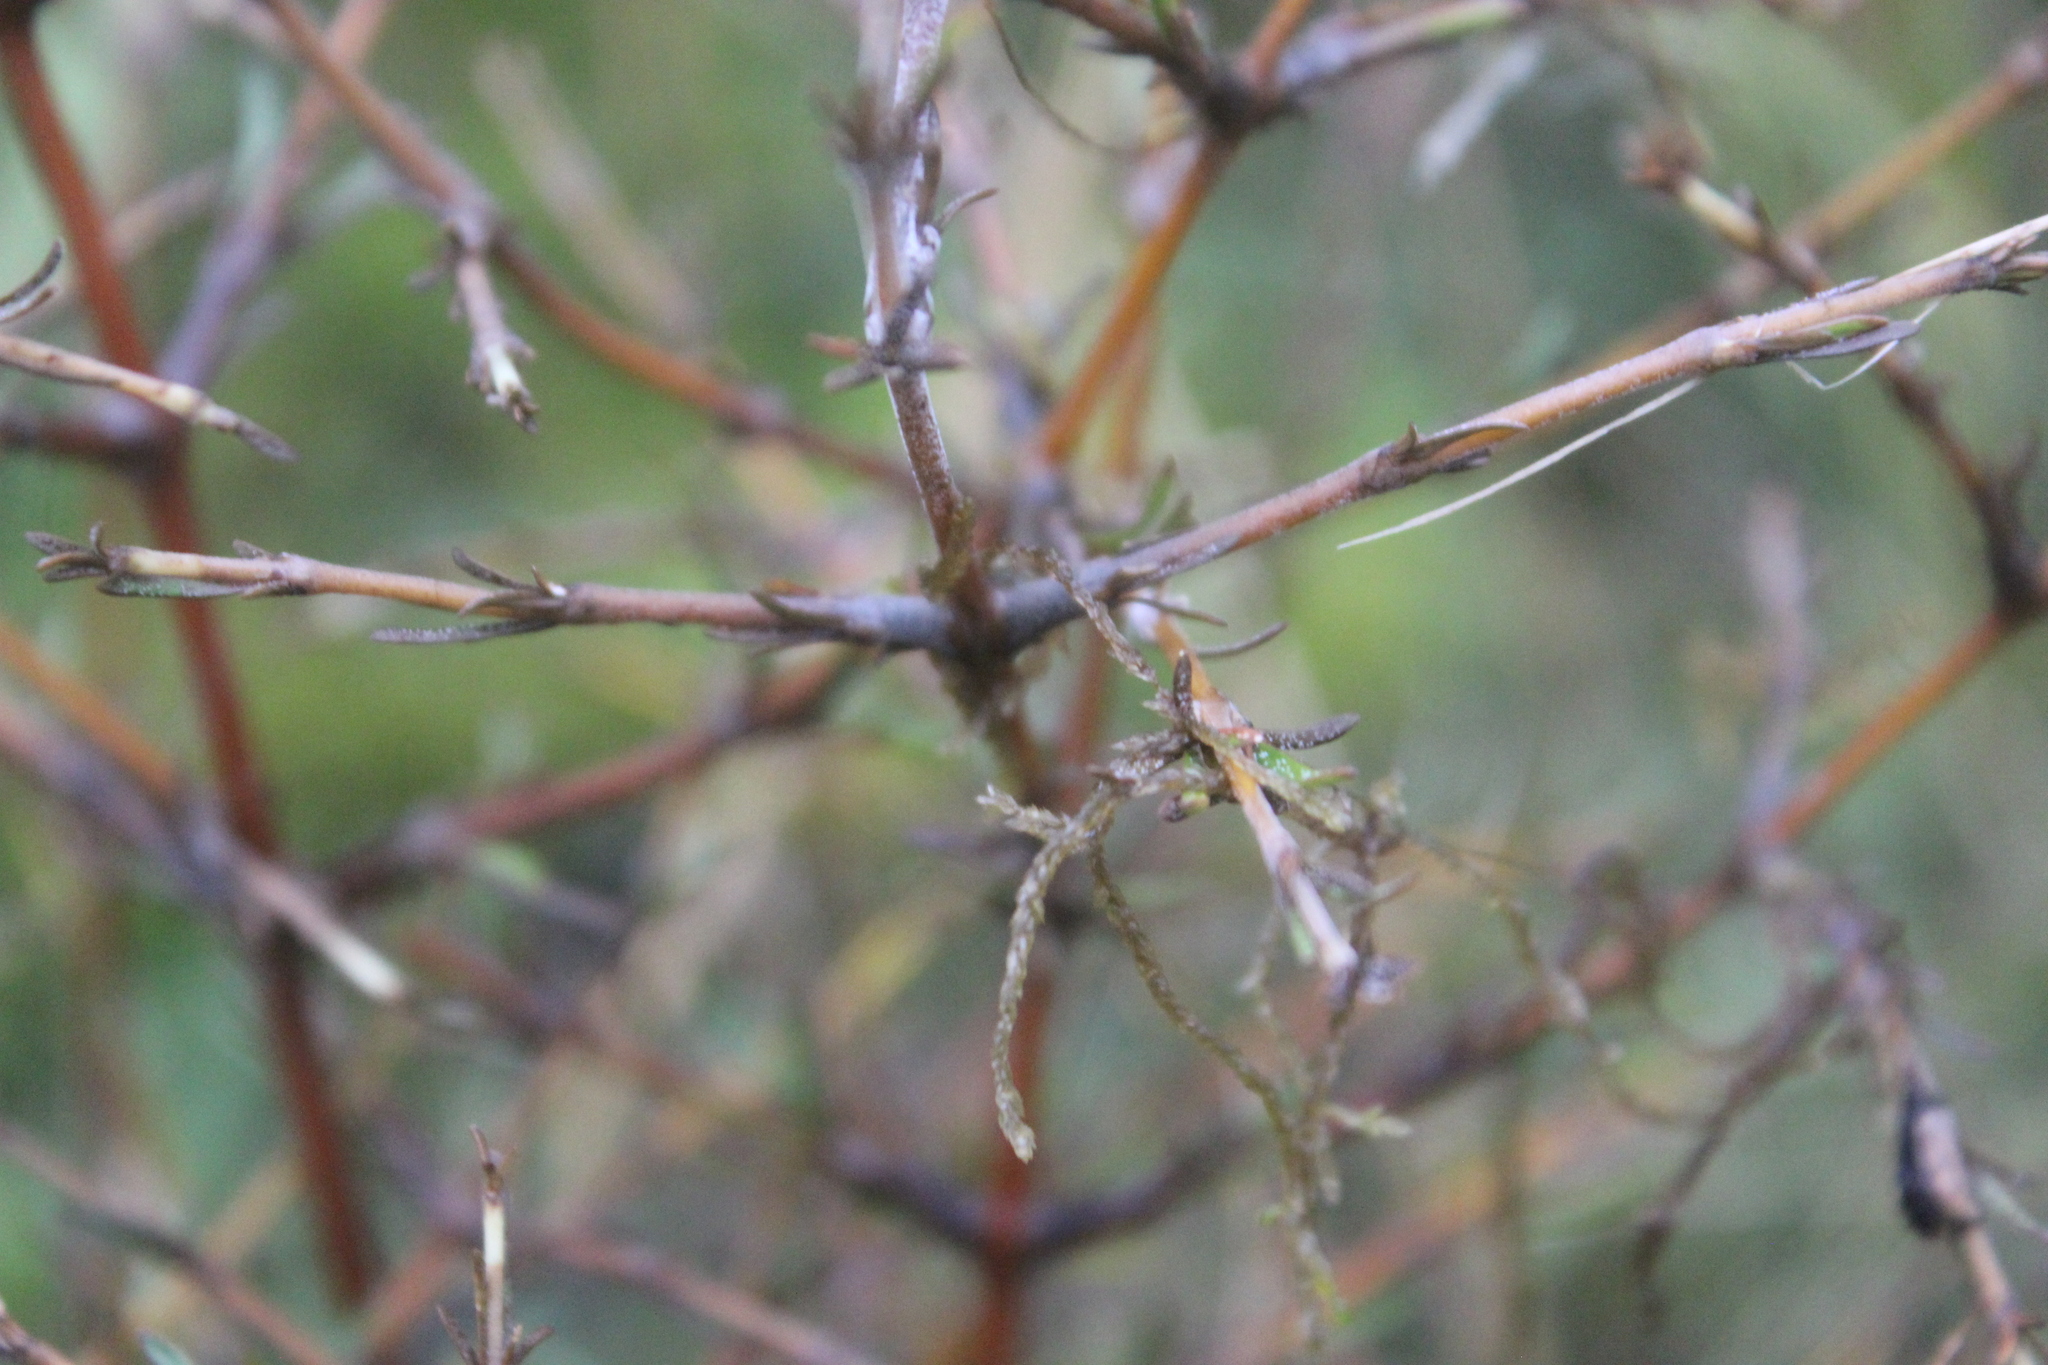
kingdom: Plantae
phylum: Tracheophyta
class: Magnoliopsida
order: Gentianales
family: Rubiaceae
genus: Coprosma
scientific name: Coprosma rugosa
